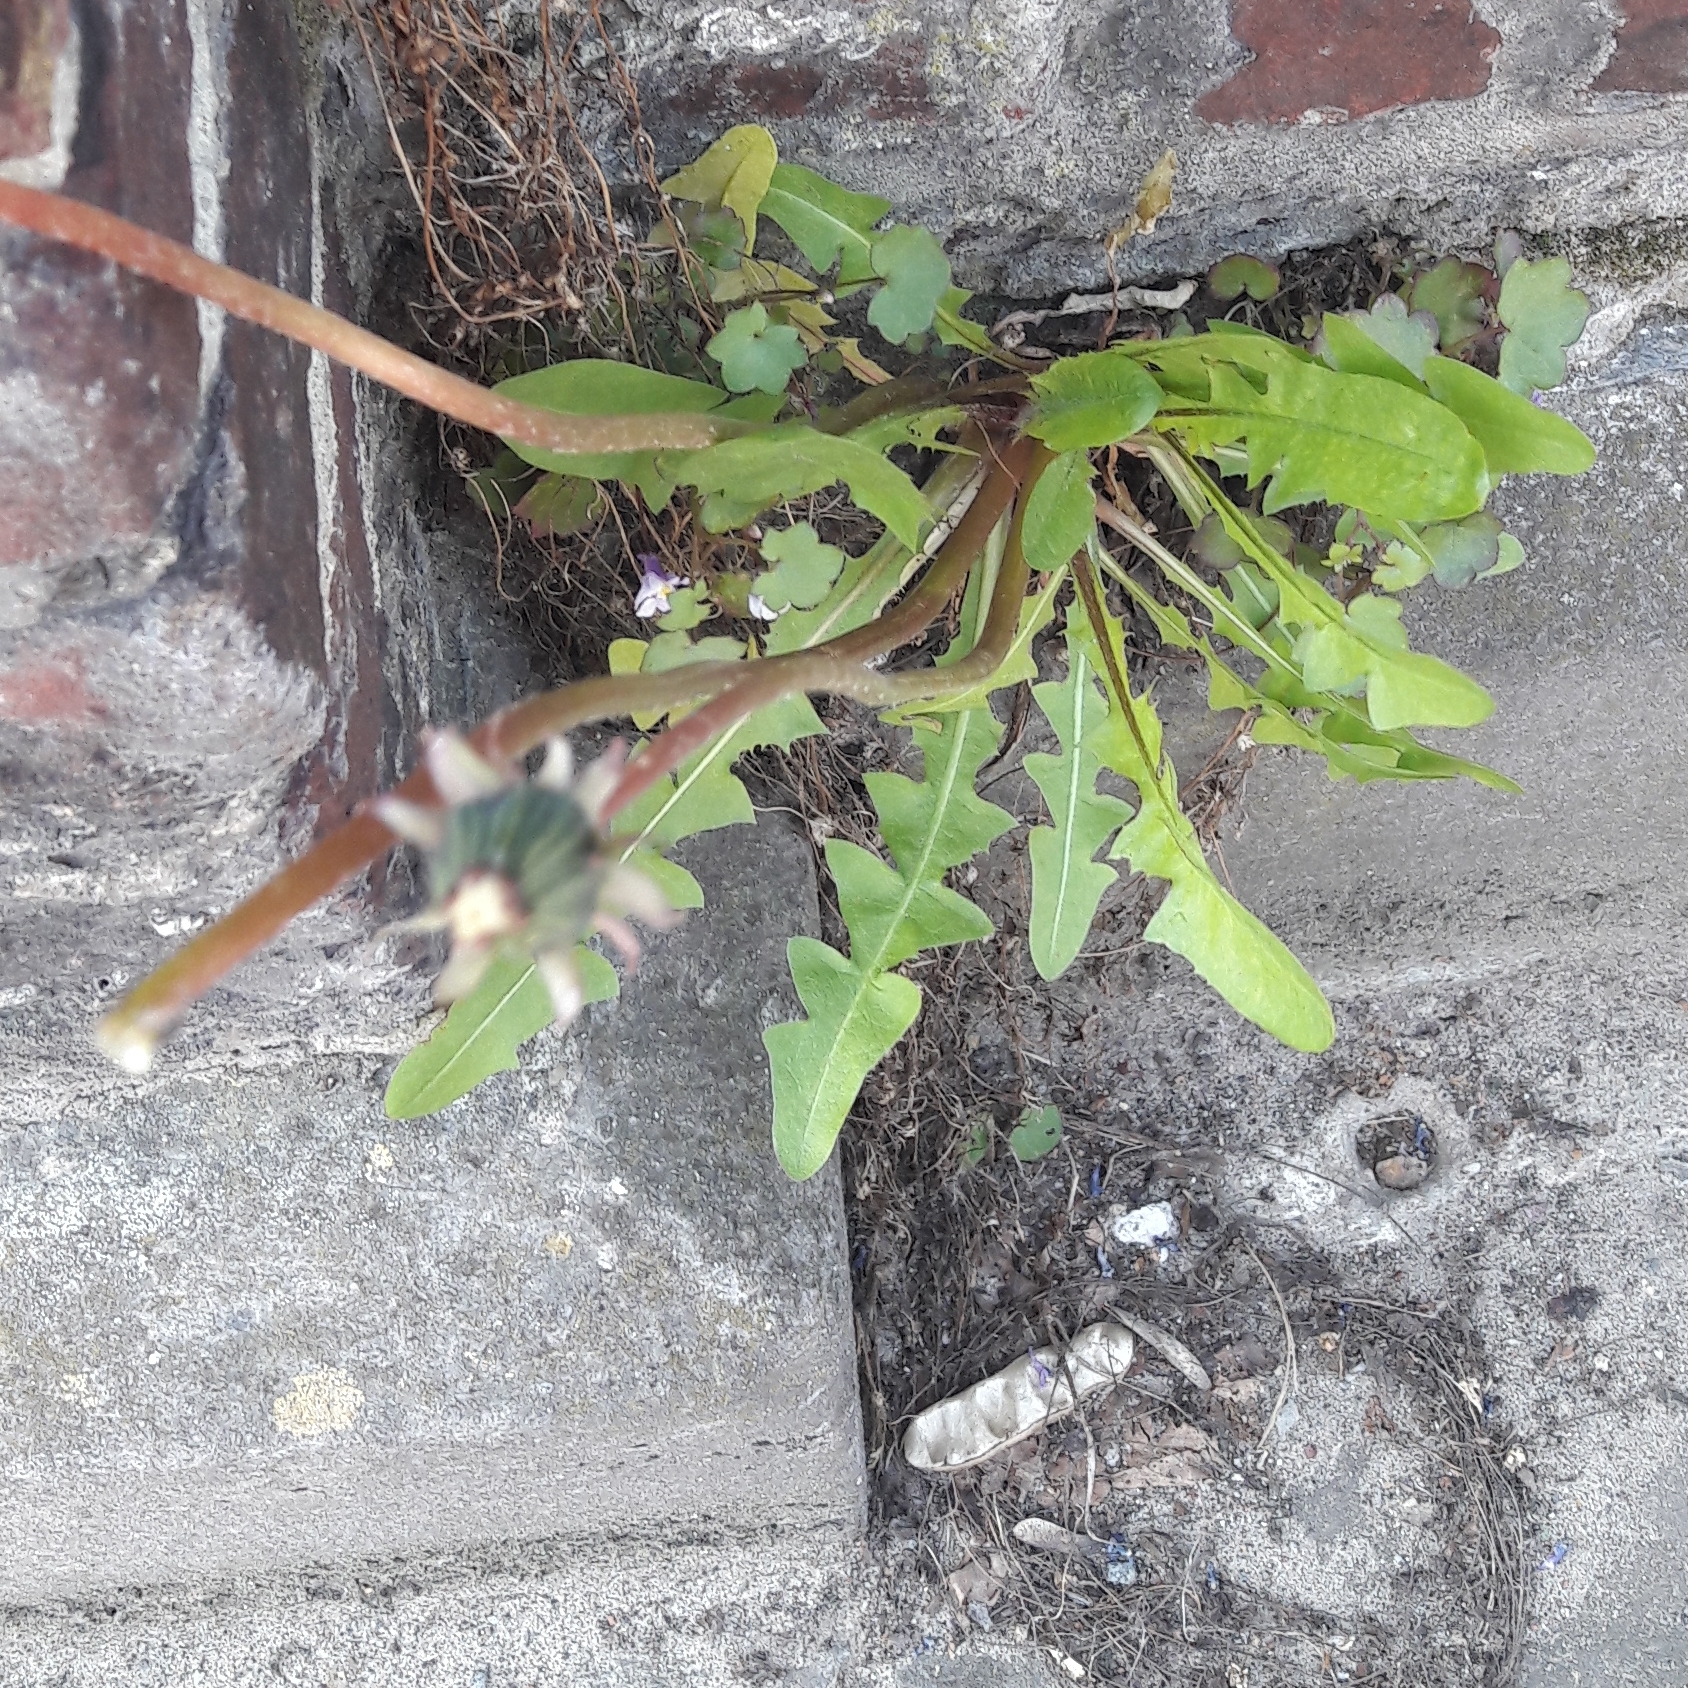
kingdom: Plantae
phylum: Tracheophyta
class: Magnoliopsida
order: Asterales
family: Asteraceae
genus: Taraxacum
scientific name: Taraxacum officinale
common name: Common dandelion
